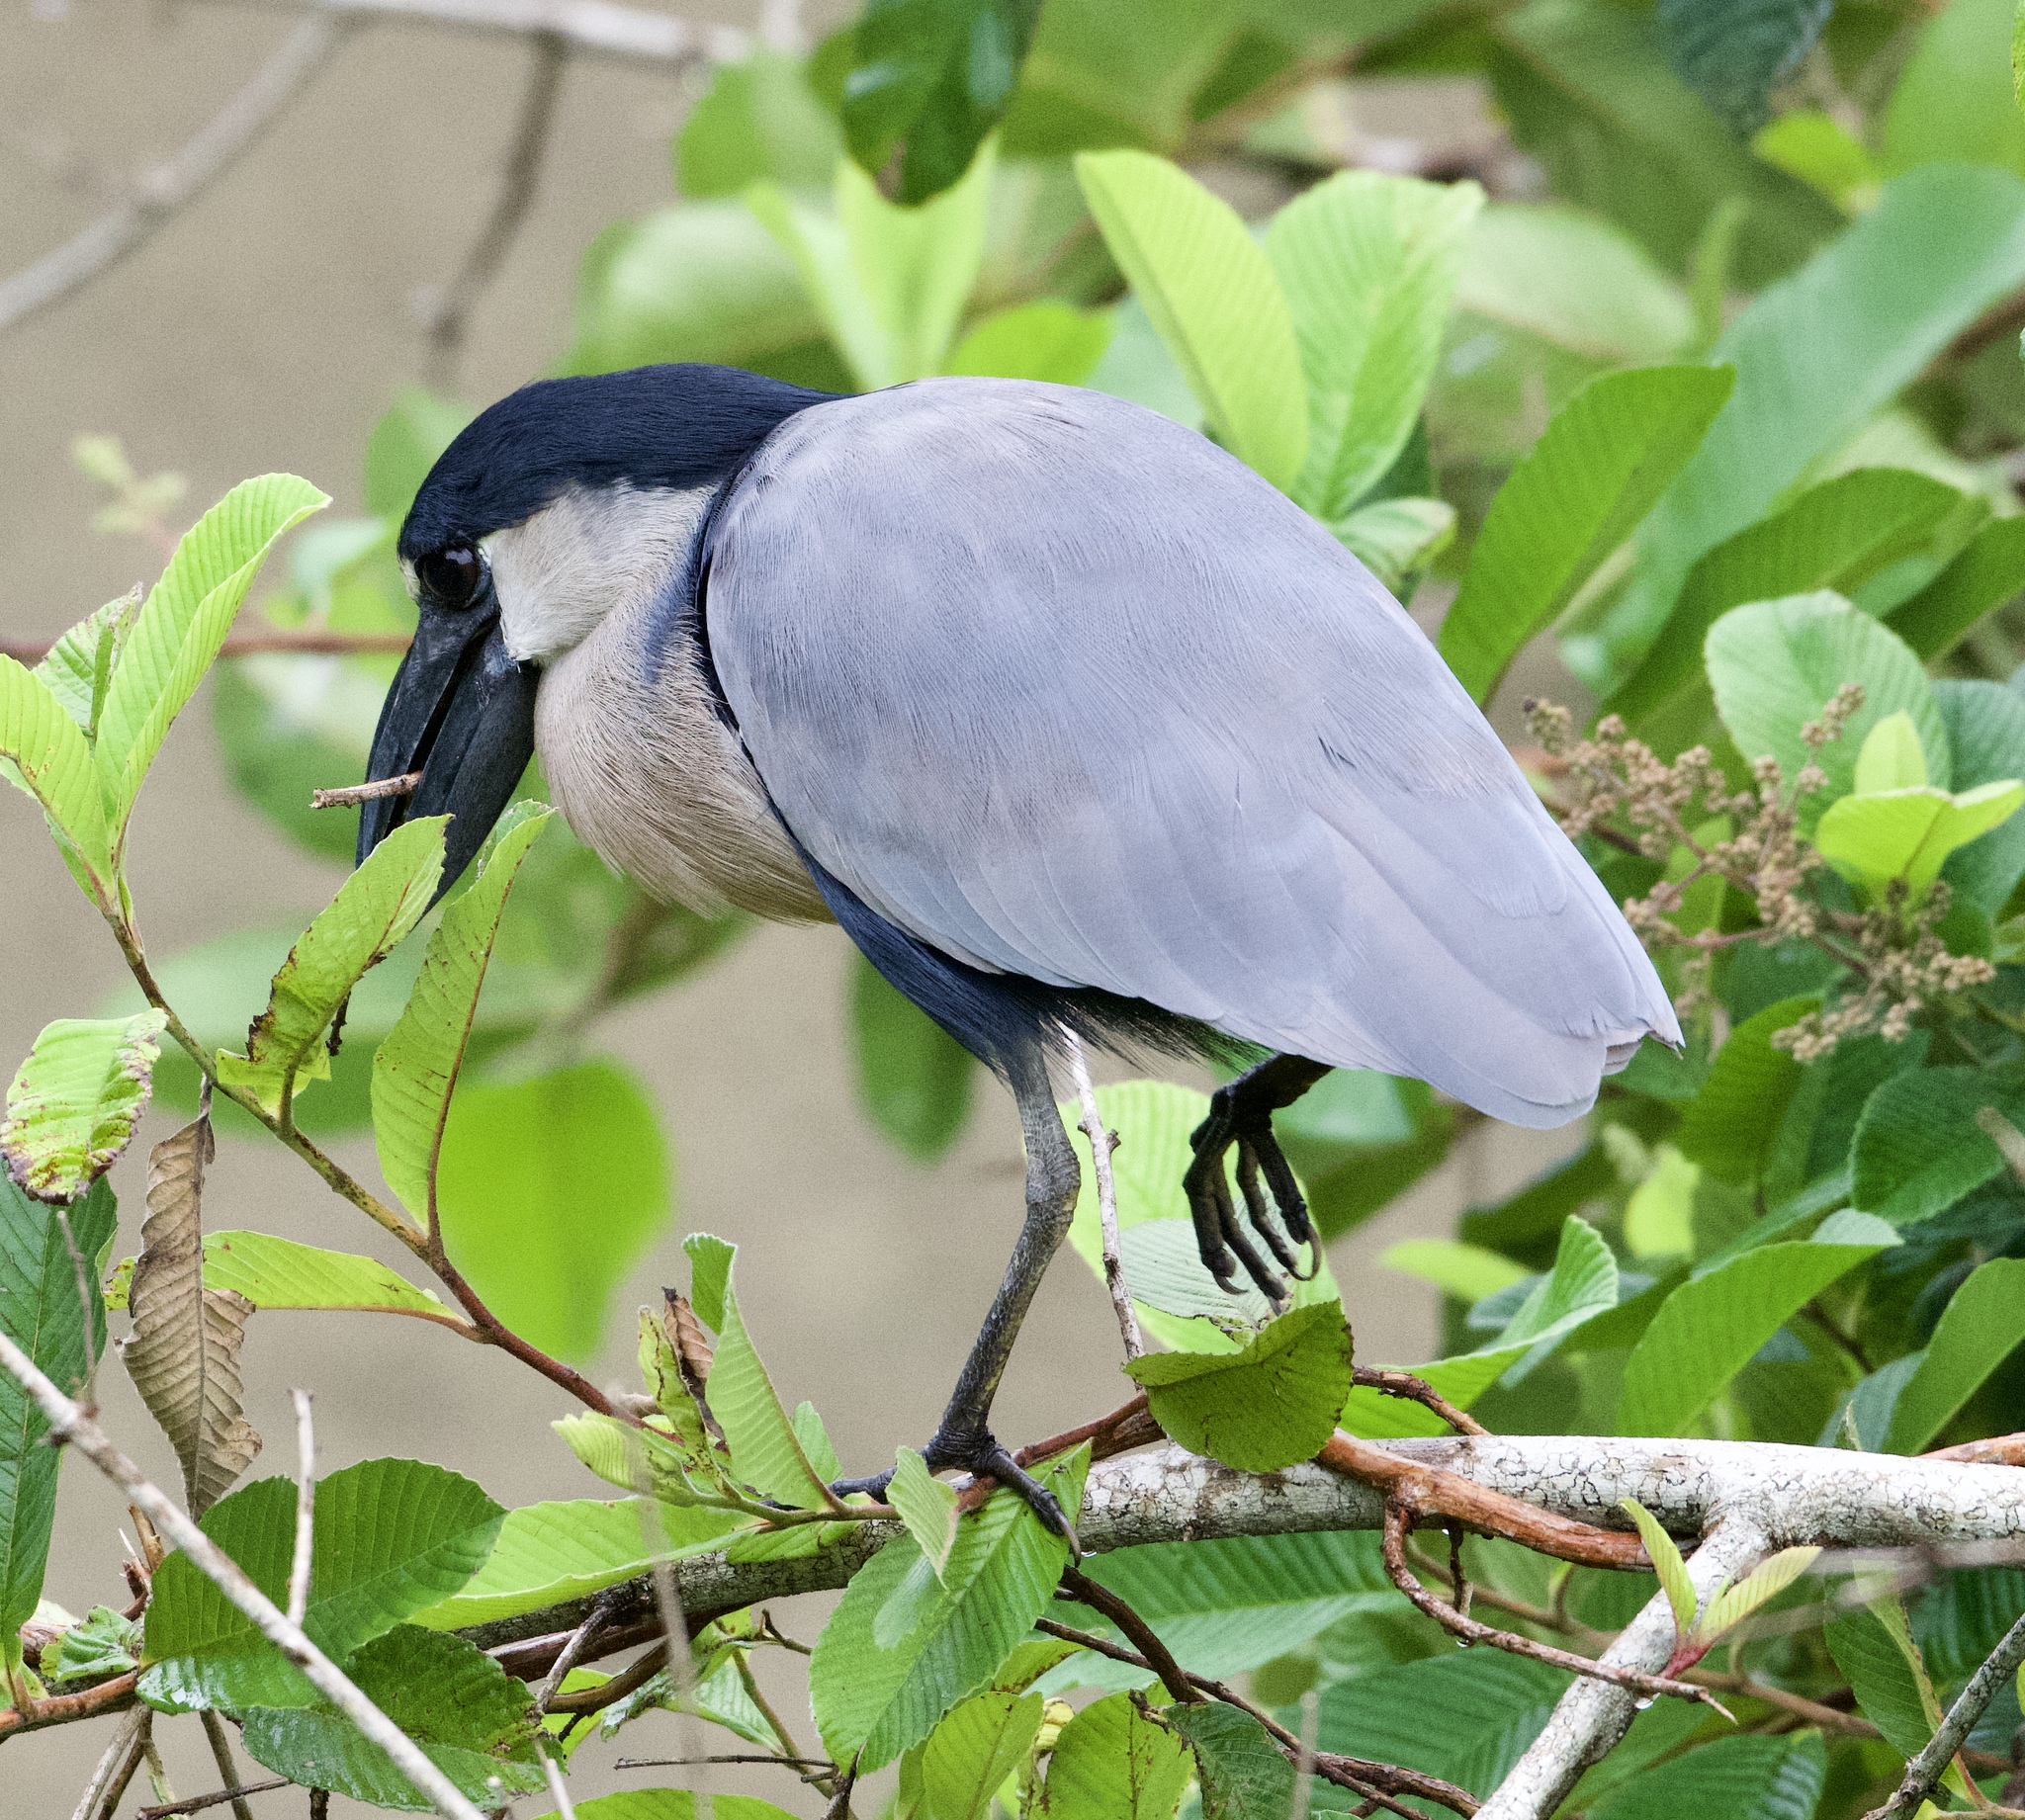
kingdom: Animalia
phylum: Chordata
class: Aves
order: Pelecaniformes
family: Ardeidae
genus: Cochlearius
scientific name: Cochlearius cochlearius
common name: Boat-billed heron
